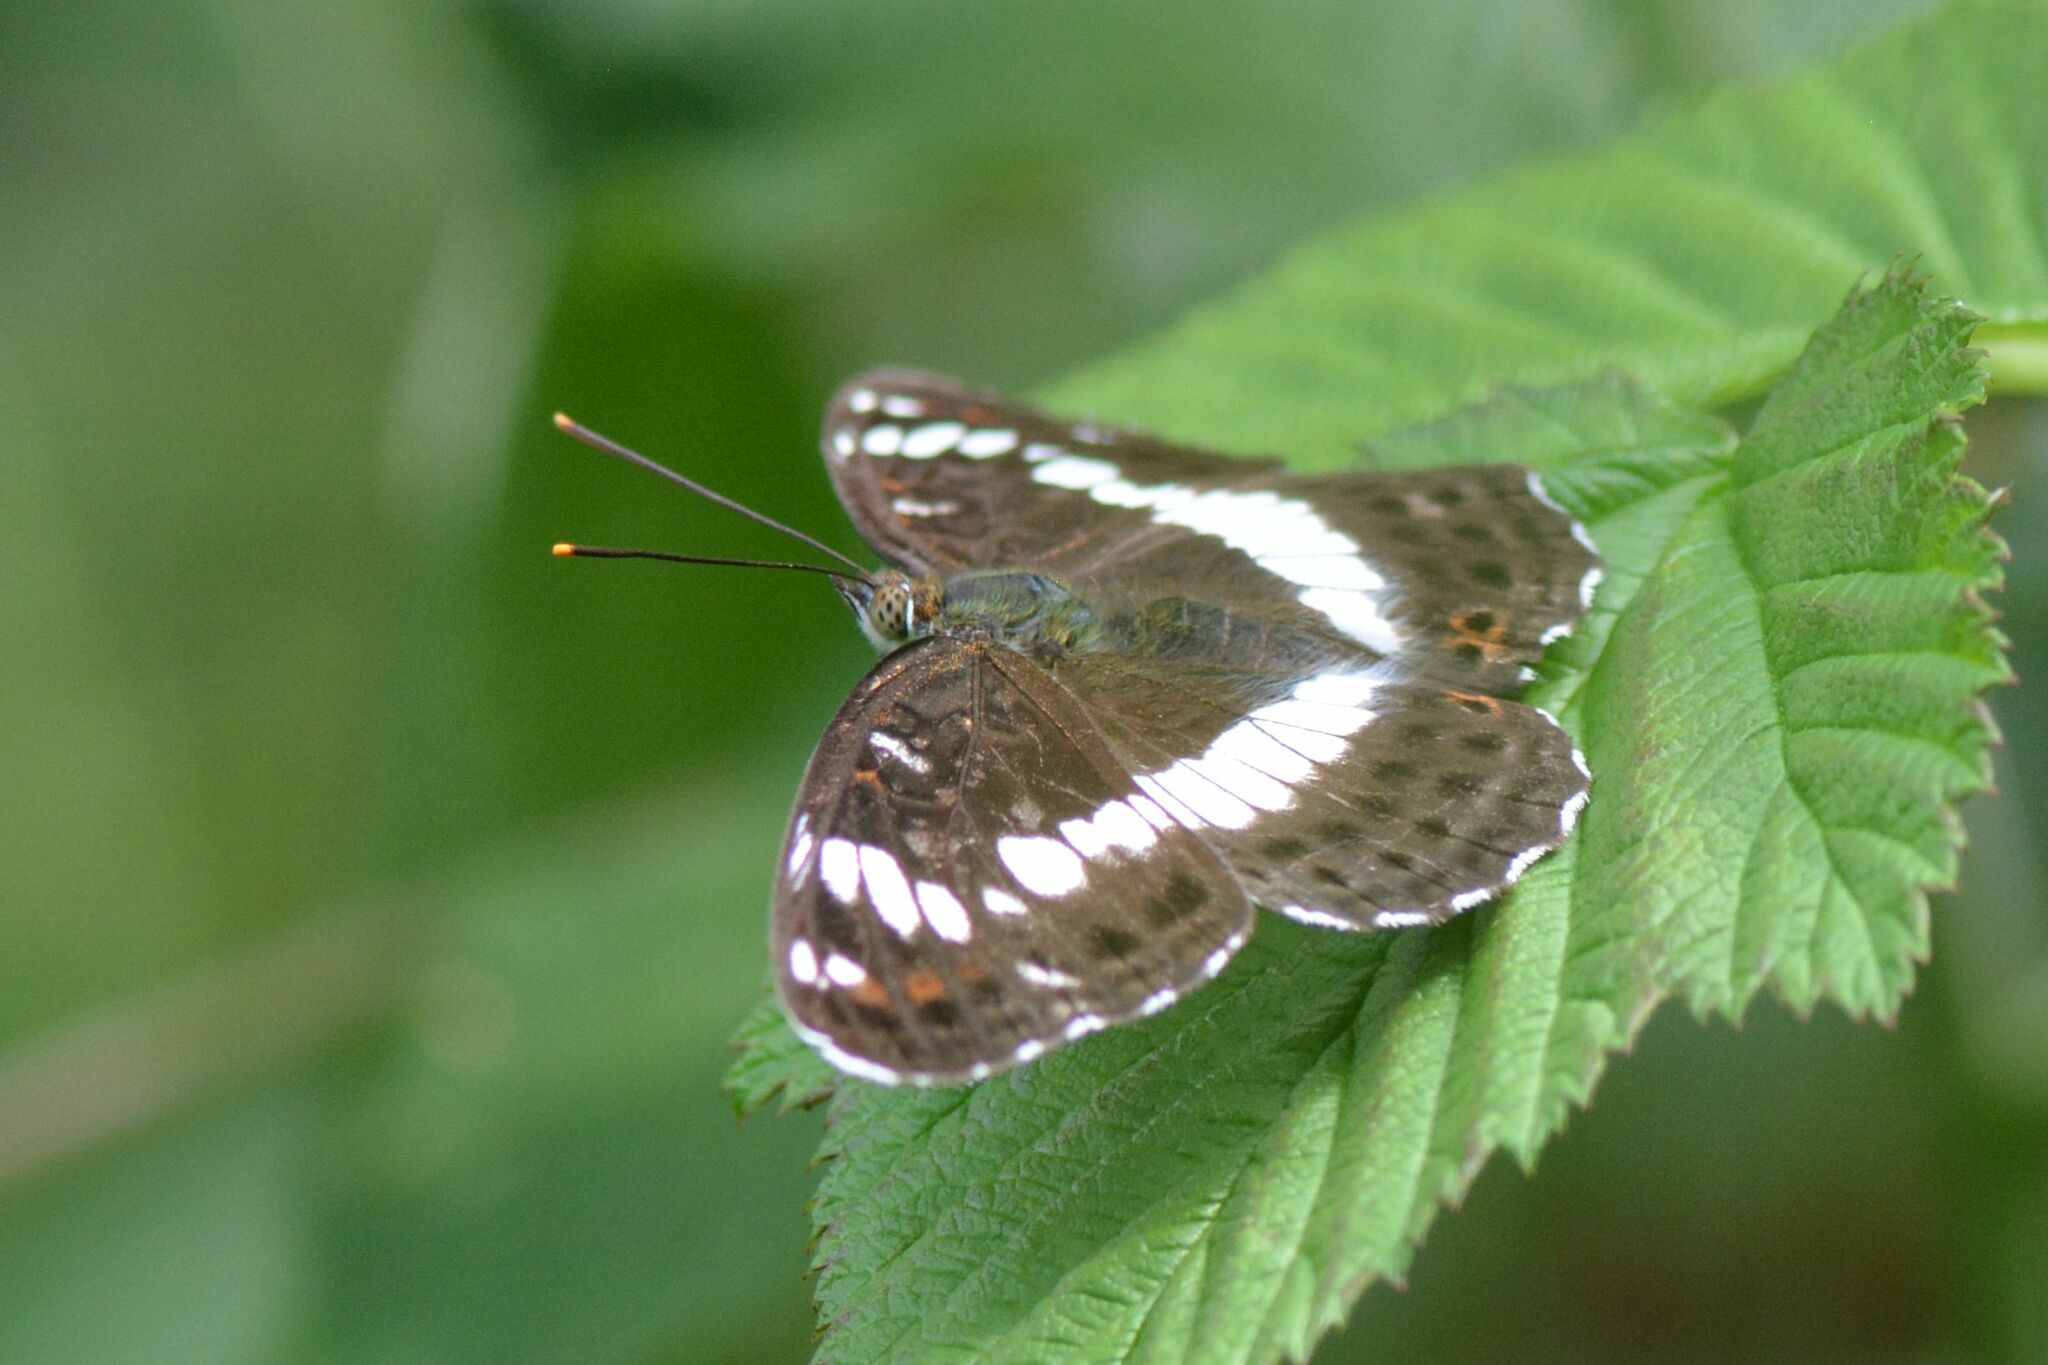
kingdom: Animalia
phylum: Arthropoda
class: Insecta
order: Lepidoptera
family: Nymphalidae
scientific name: Nymphalidae
